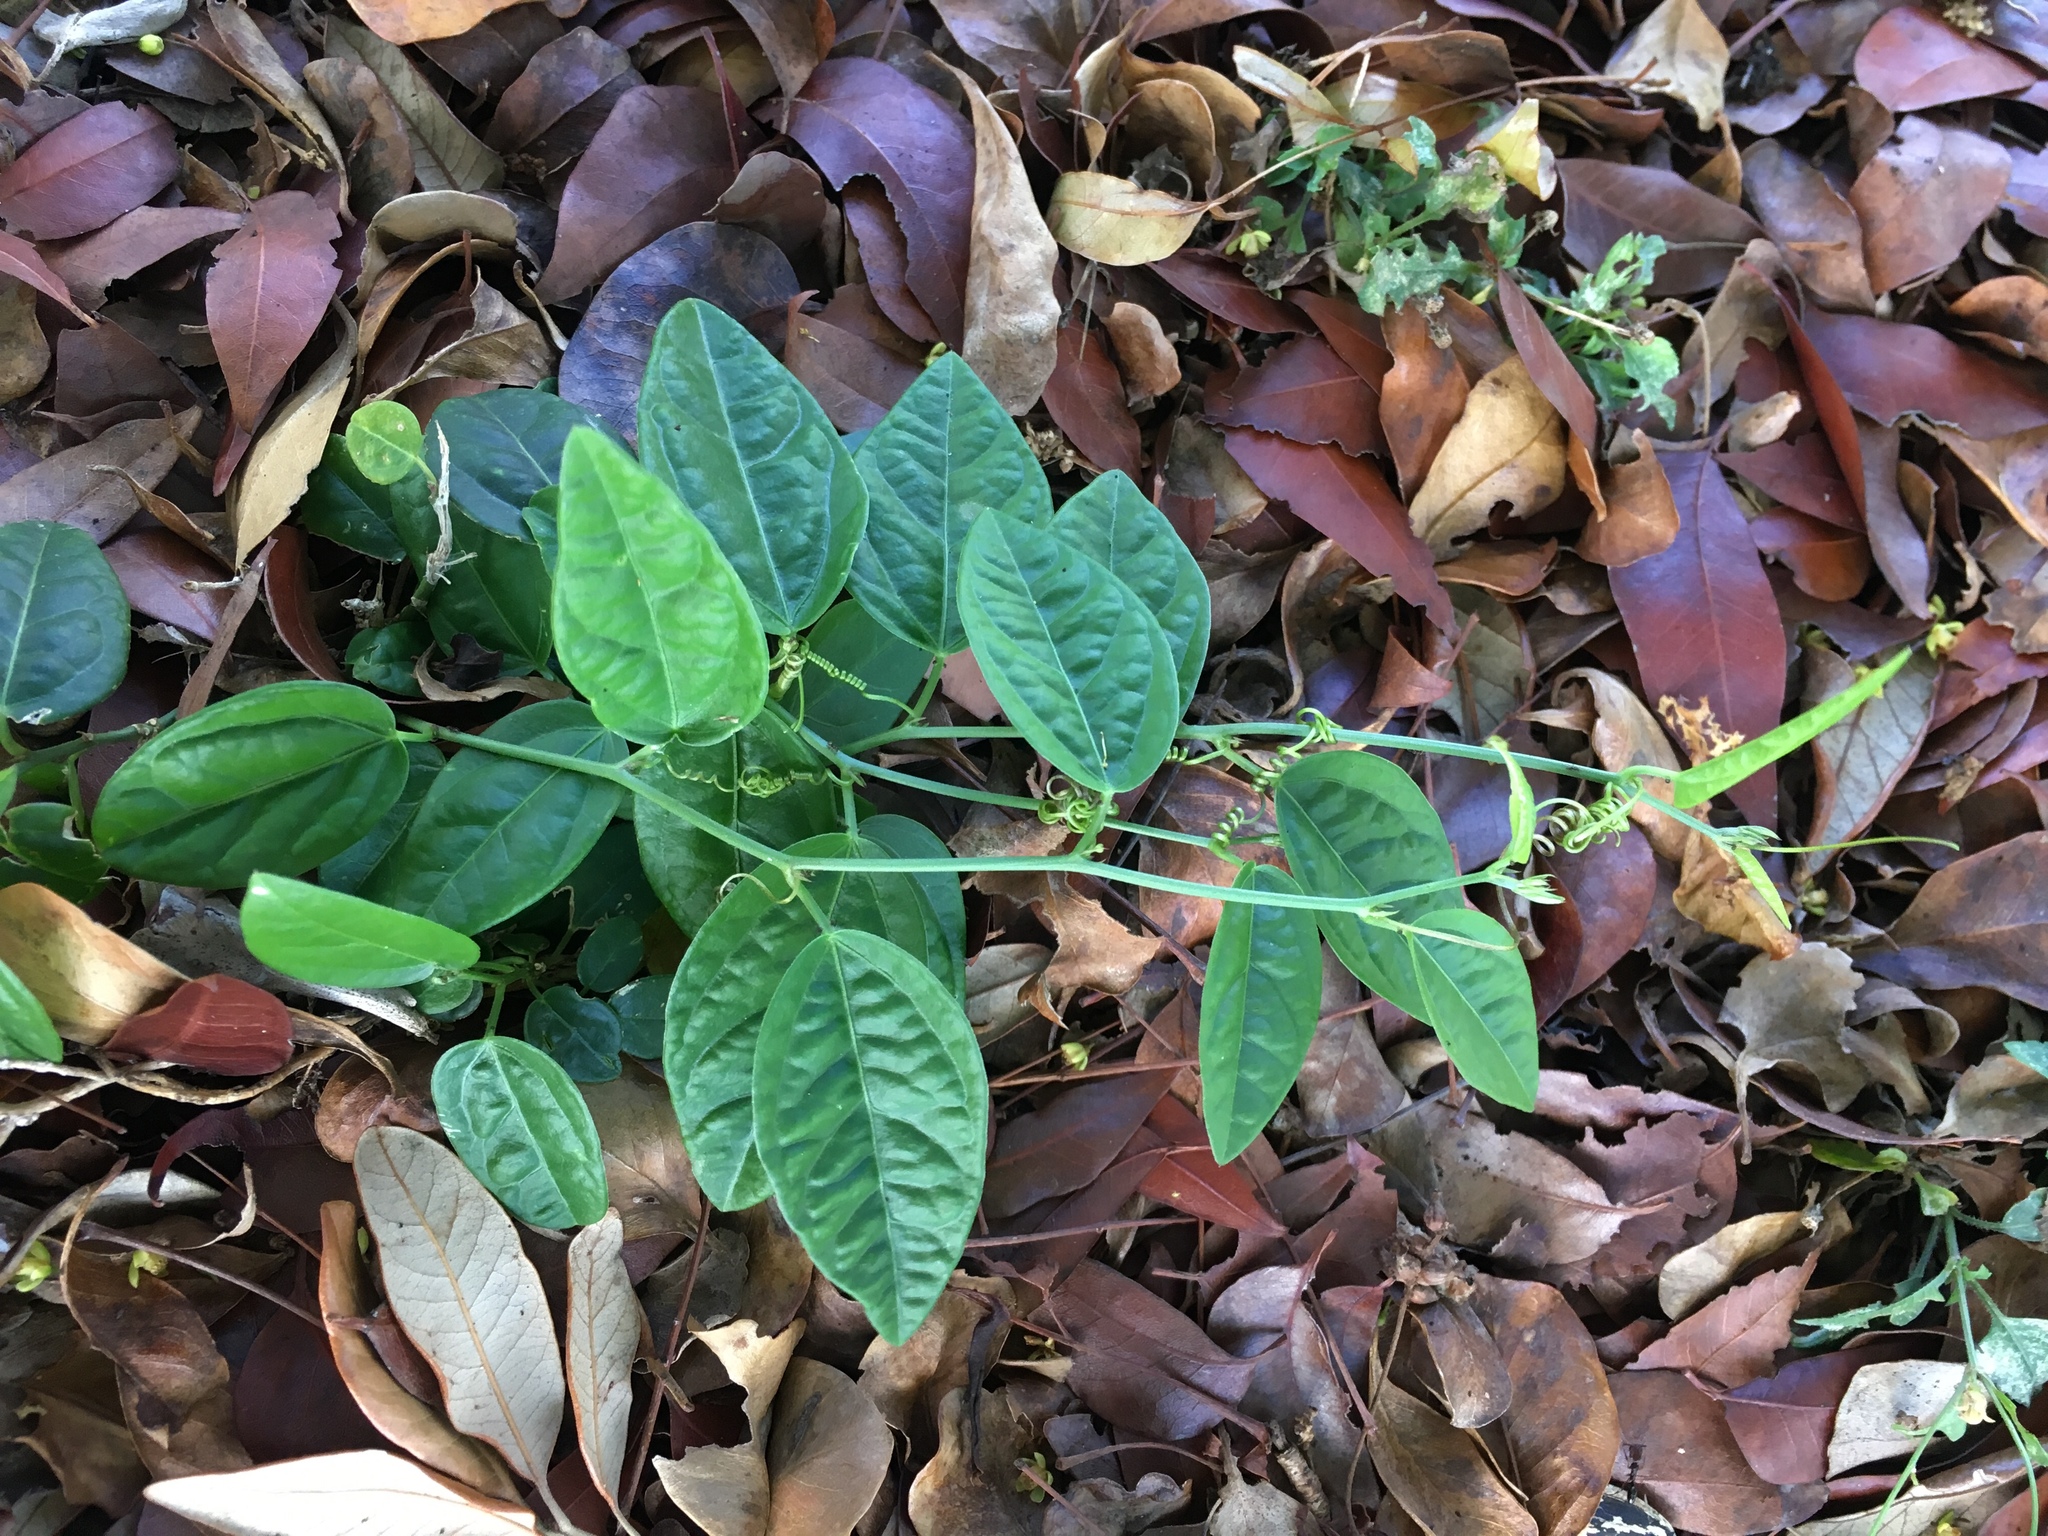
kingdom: Plantae
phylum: Tracheophyta
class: Magnoliopsida
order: Malpighiales
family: Passifloraceae
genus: Passiflora
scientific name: Passiflora pallida
